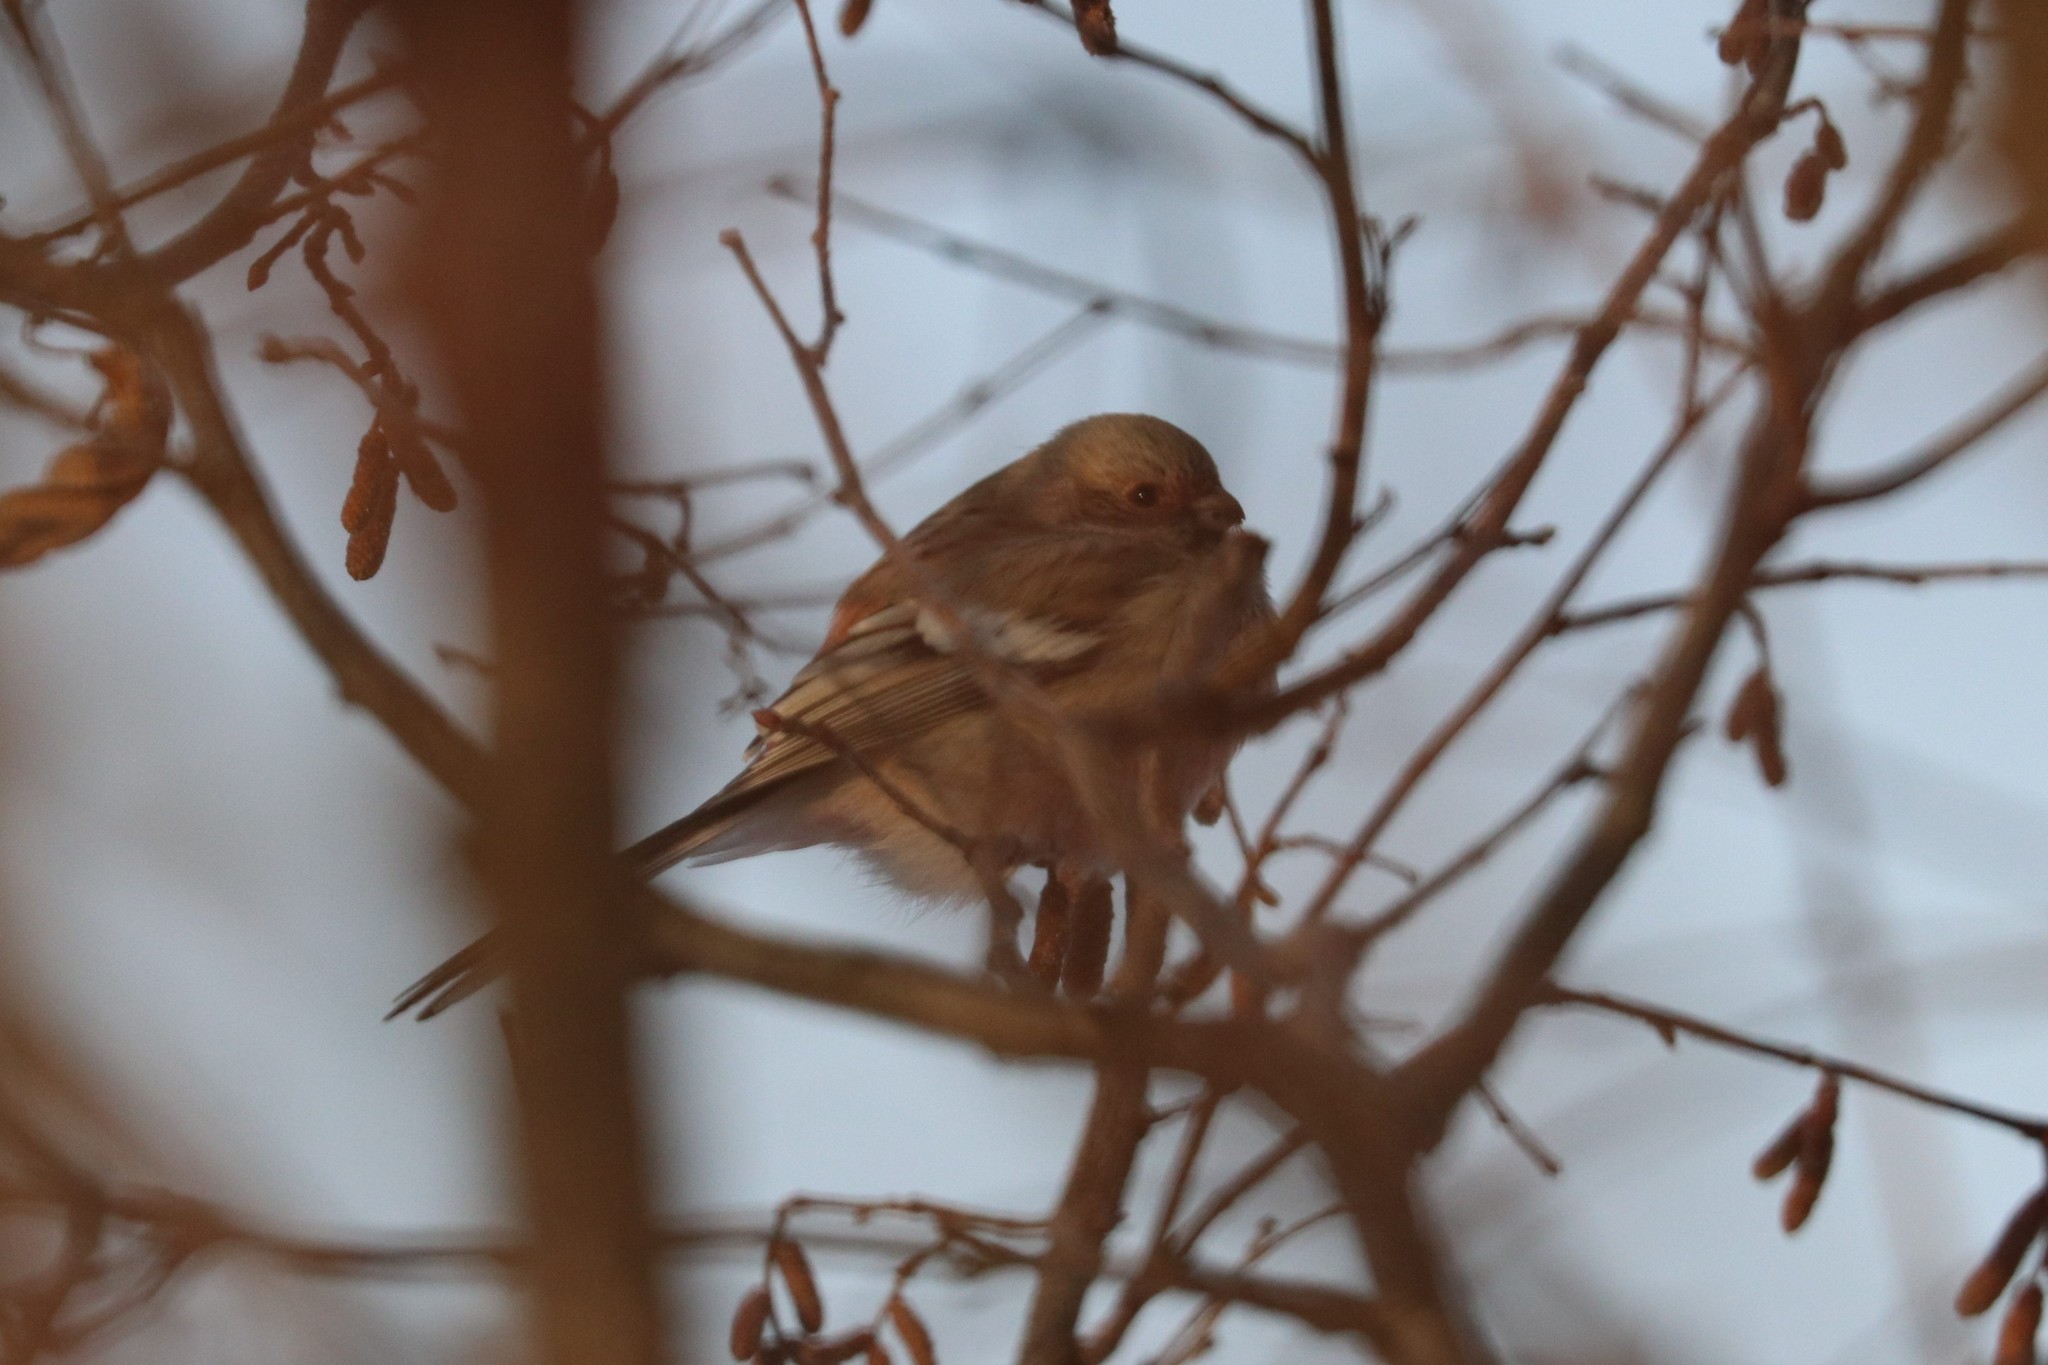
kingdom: Animalia
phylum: Chordata
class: Aves
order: Passeriformes
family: Fringillidae
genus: Carpodacus
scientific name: Carpodacus sibiricus
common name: Long-tailed rosefinch
